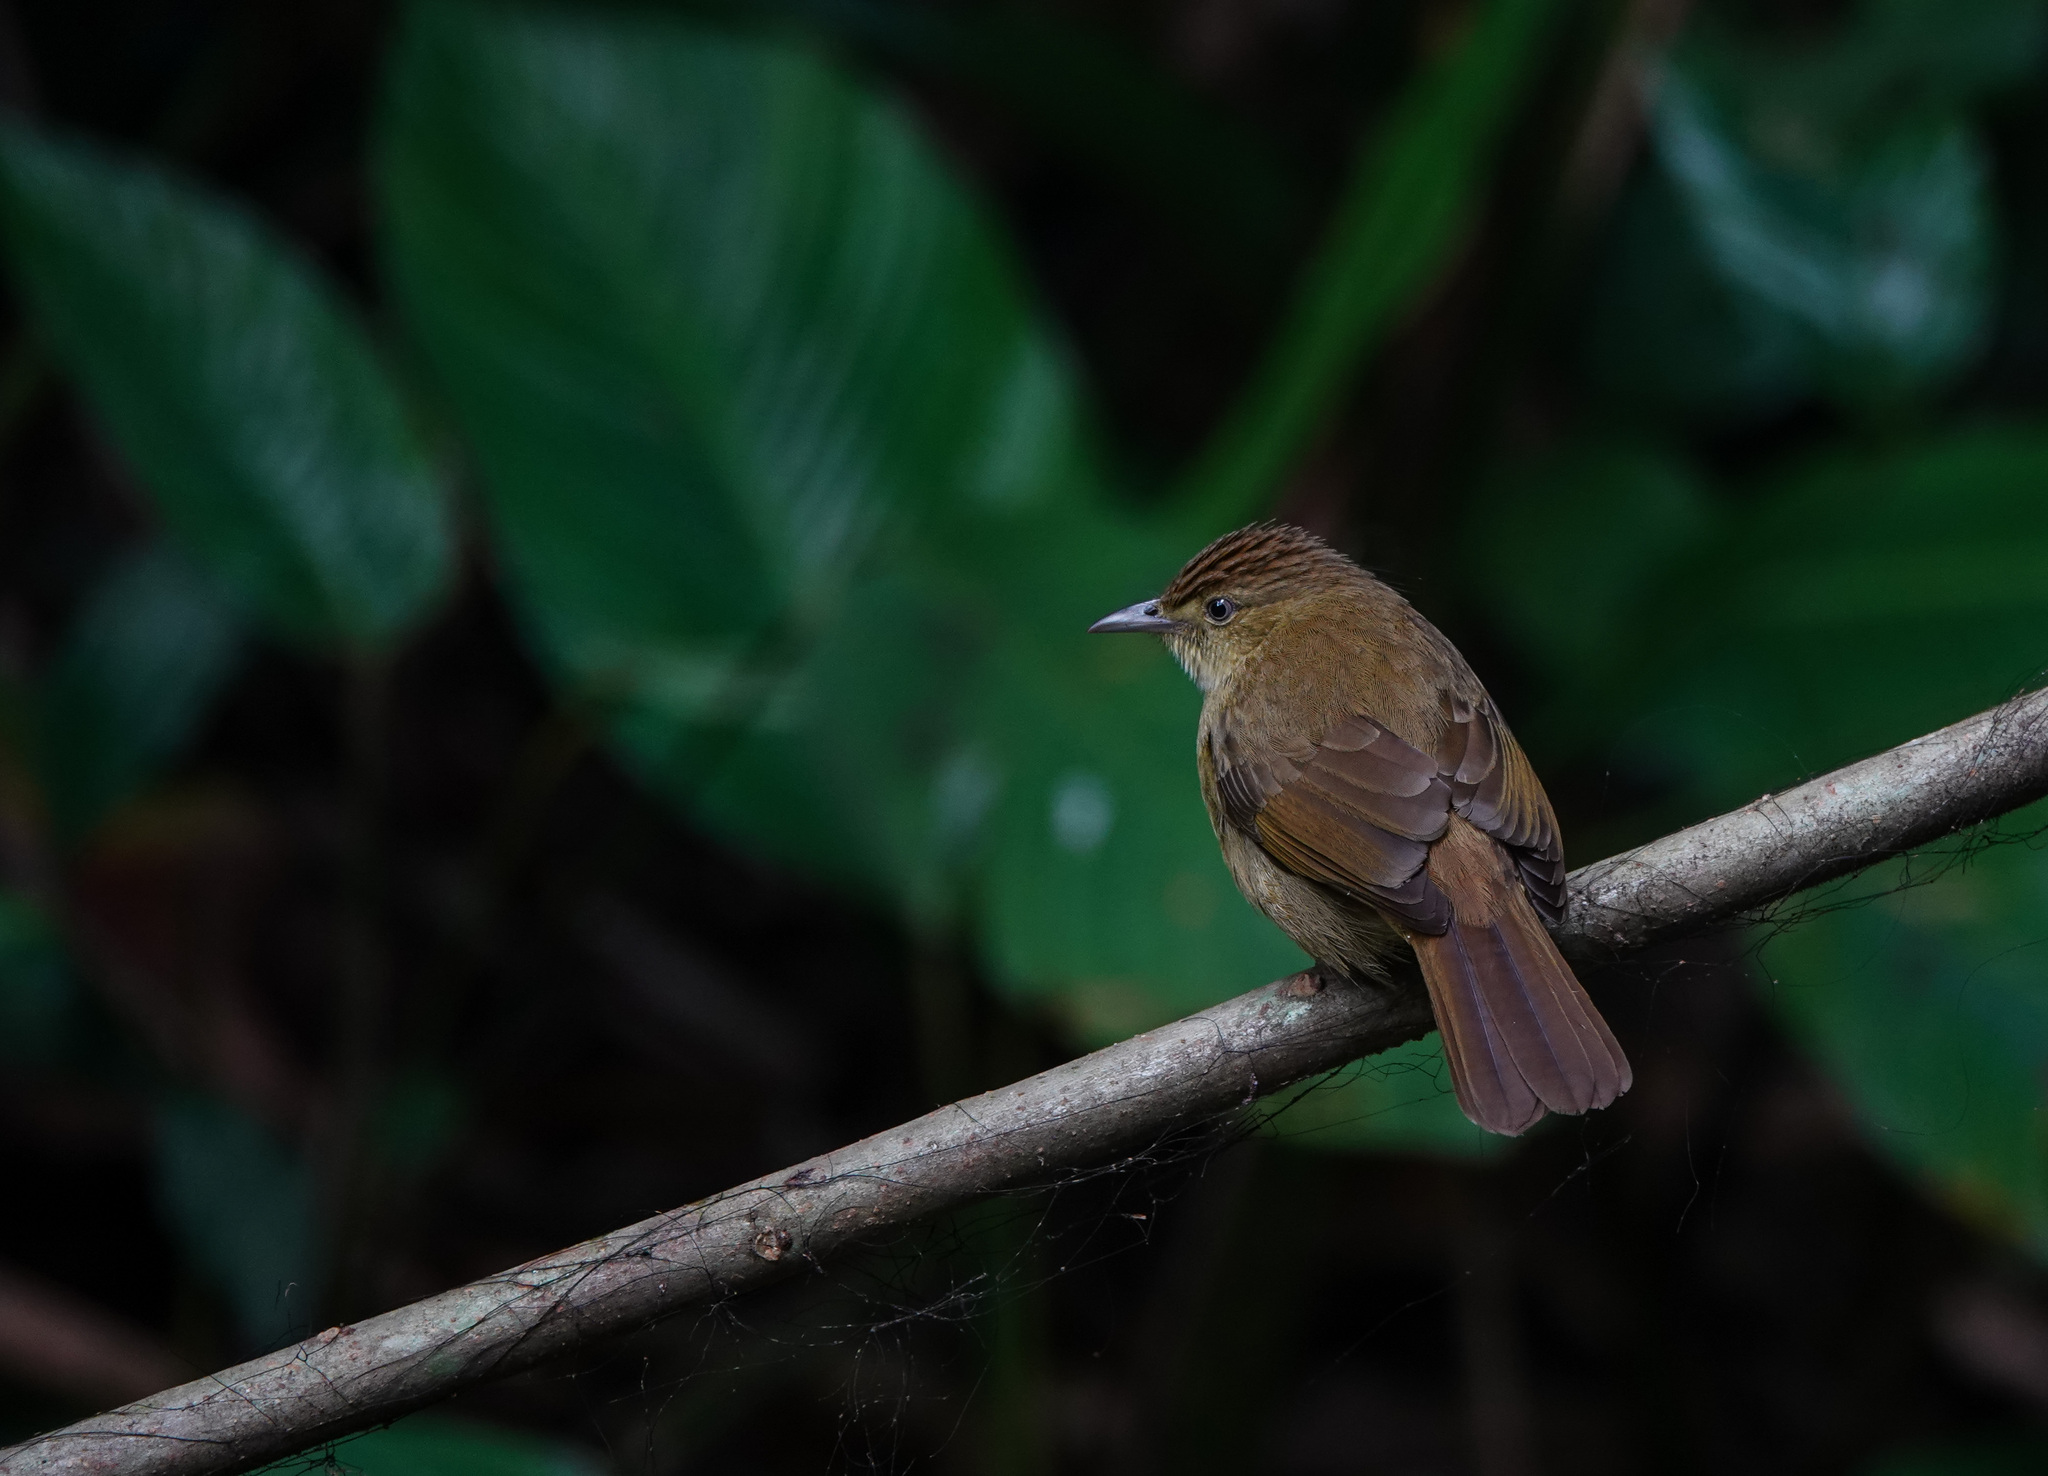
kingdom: Animalia
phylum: Chordata
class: Aves
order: Passeriformes
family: Pycnonotidae
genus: Iole
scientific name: Iole virescens
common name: Olive bulbul
